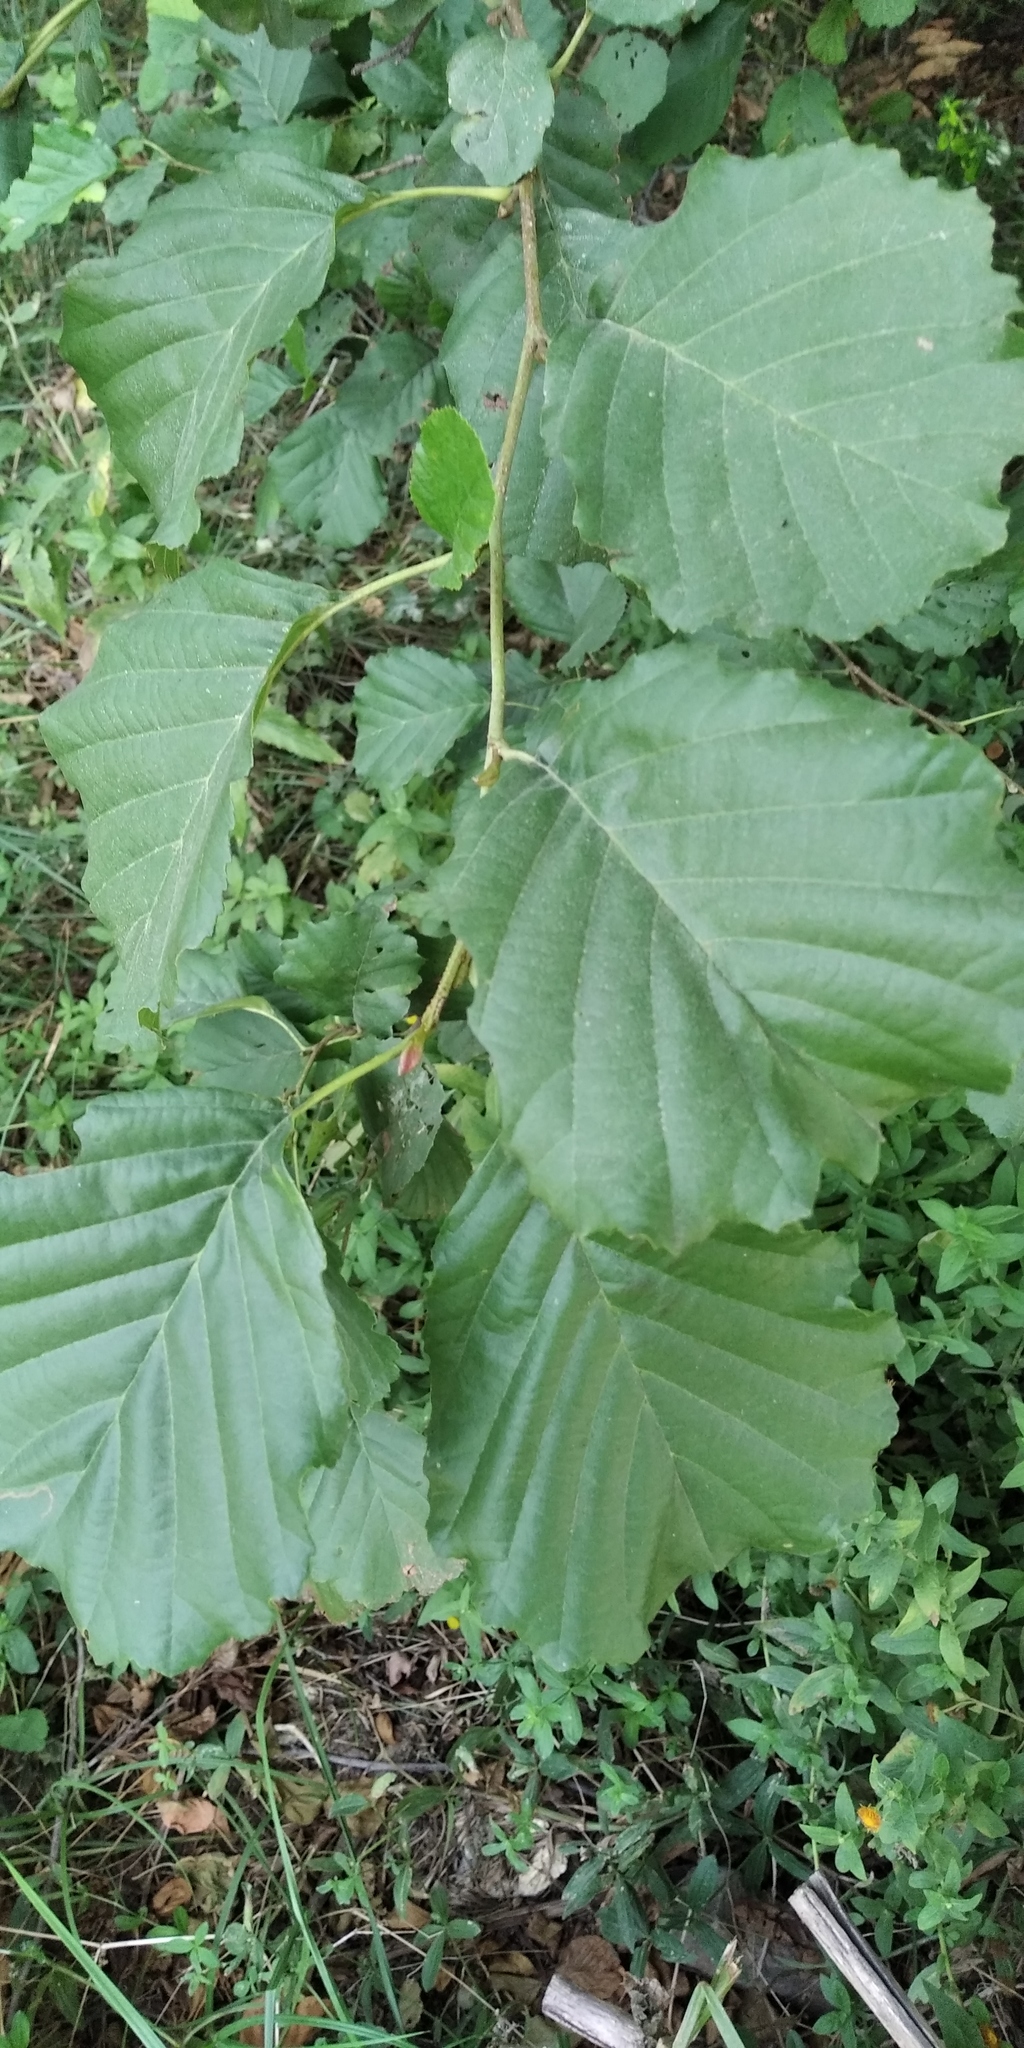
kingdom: Plantae
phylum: Tracheophyta
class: Magnoliopsida
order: Fagales
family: Betulaceae
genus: Alnus
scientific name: Alnus glutinosa
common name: Black alder
